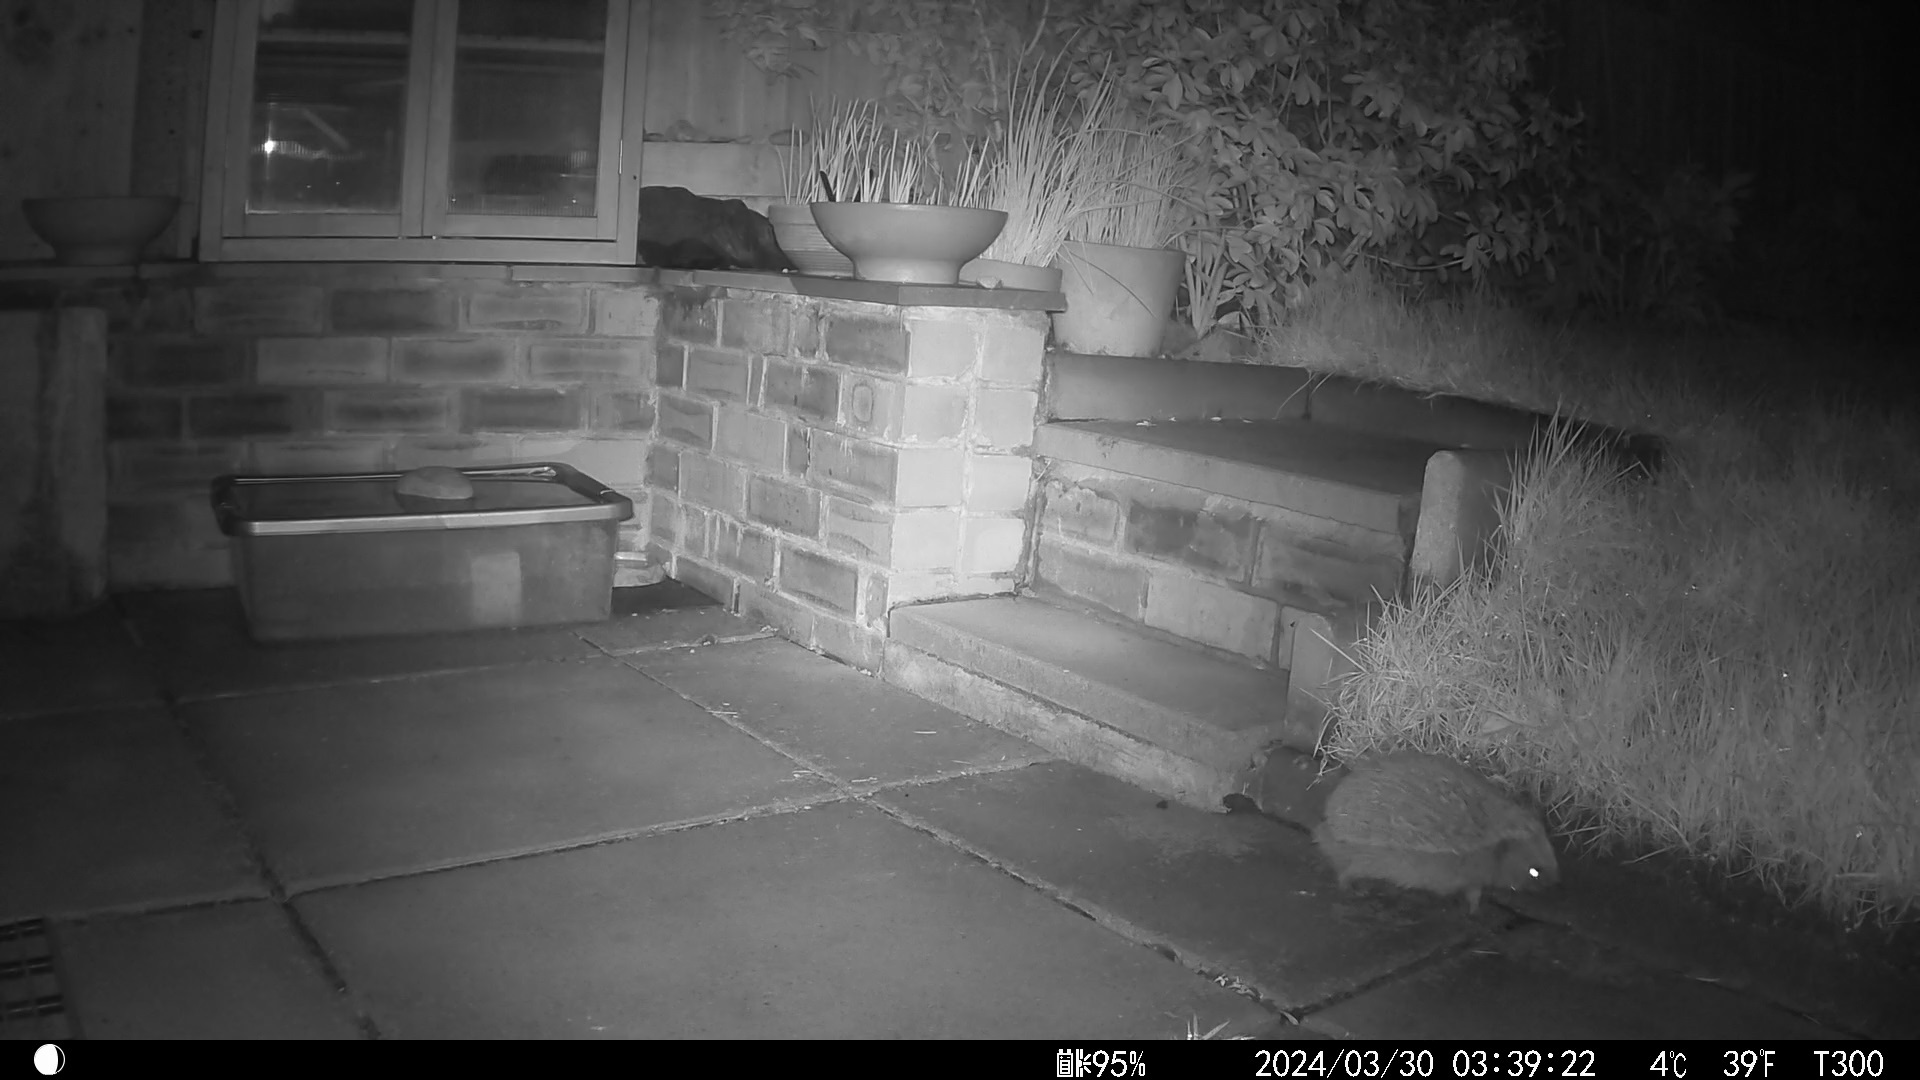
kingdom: Animalia
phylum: Chordata
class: Mammalia
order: Erinaceomorpha
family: Erinaceidae
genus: Erinaceus
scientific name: Erinaceus europaeus
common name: West european hedgehog
